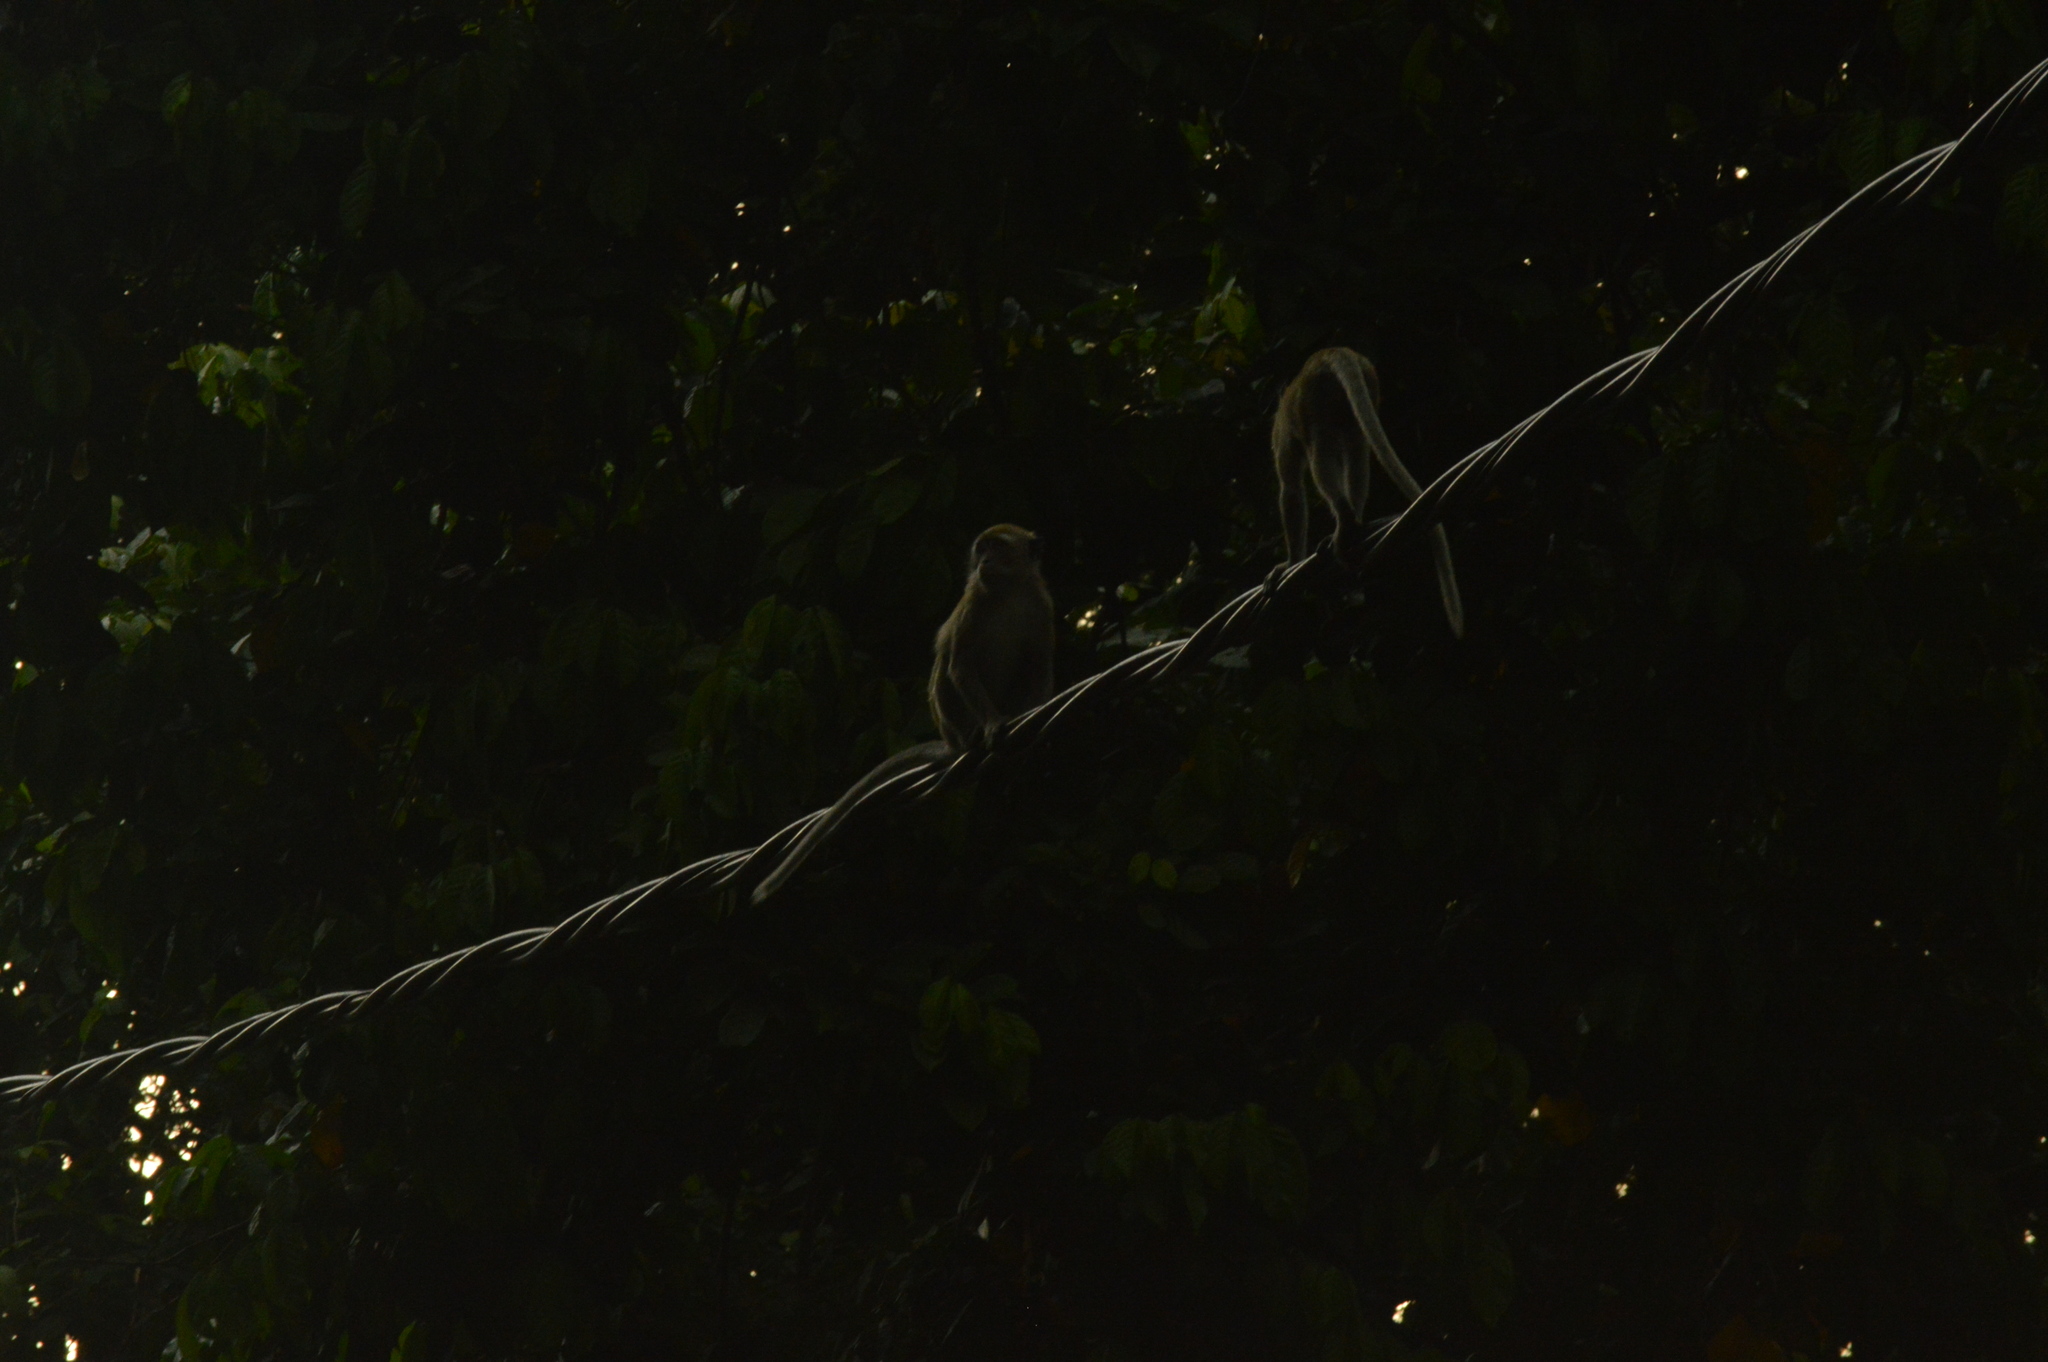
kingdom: Animalia
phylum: Chordata
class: Mammalia
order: Primates
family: Cercopithecidae
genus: Macaca
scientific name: Macaca fascicularis
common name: Crab-eating macaque
